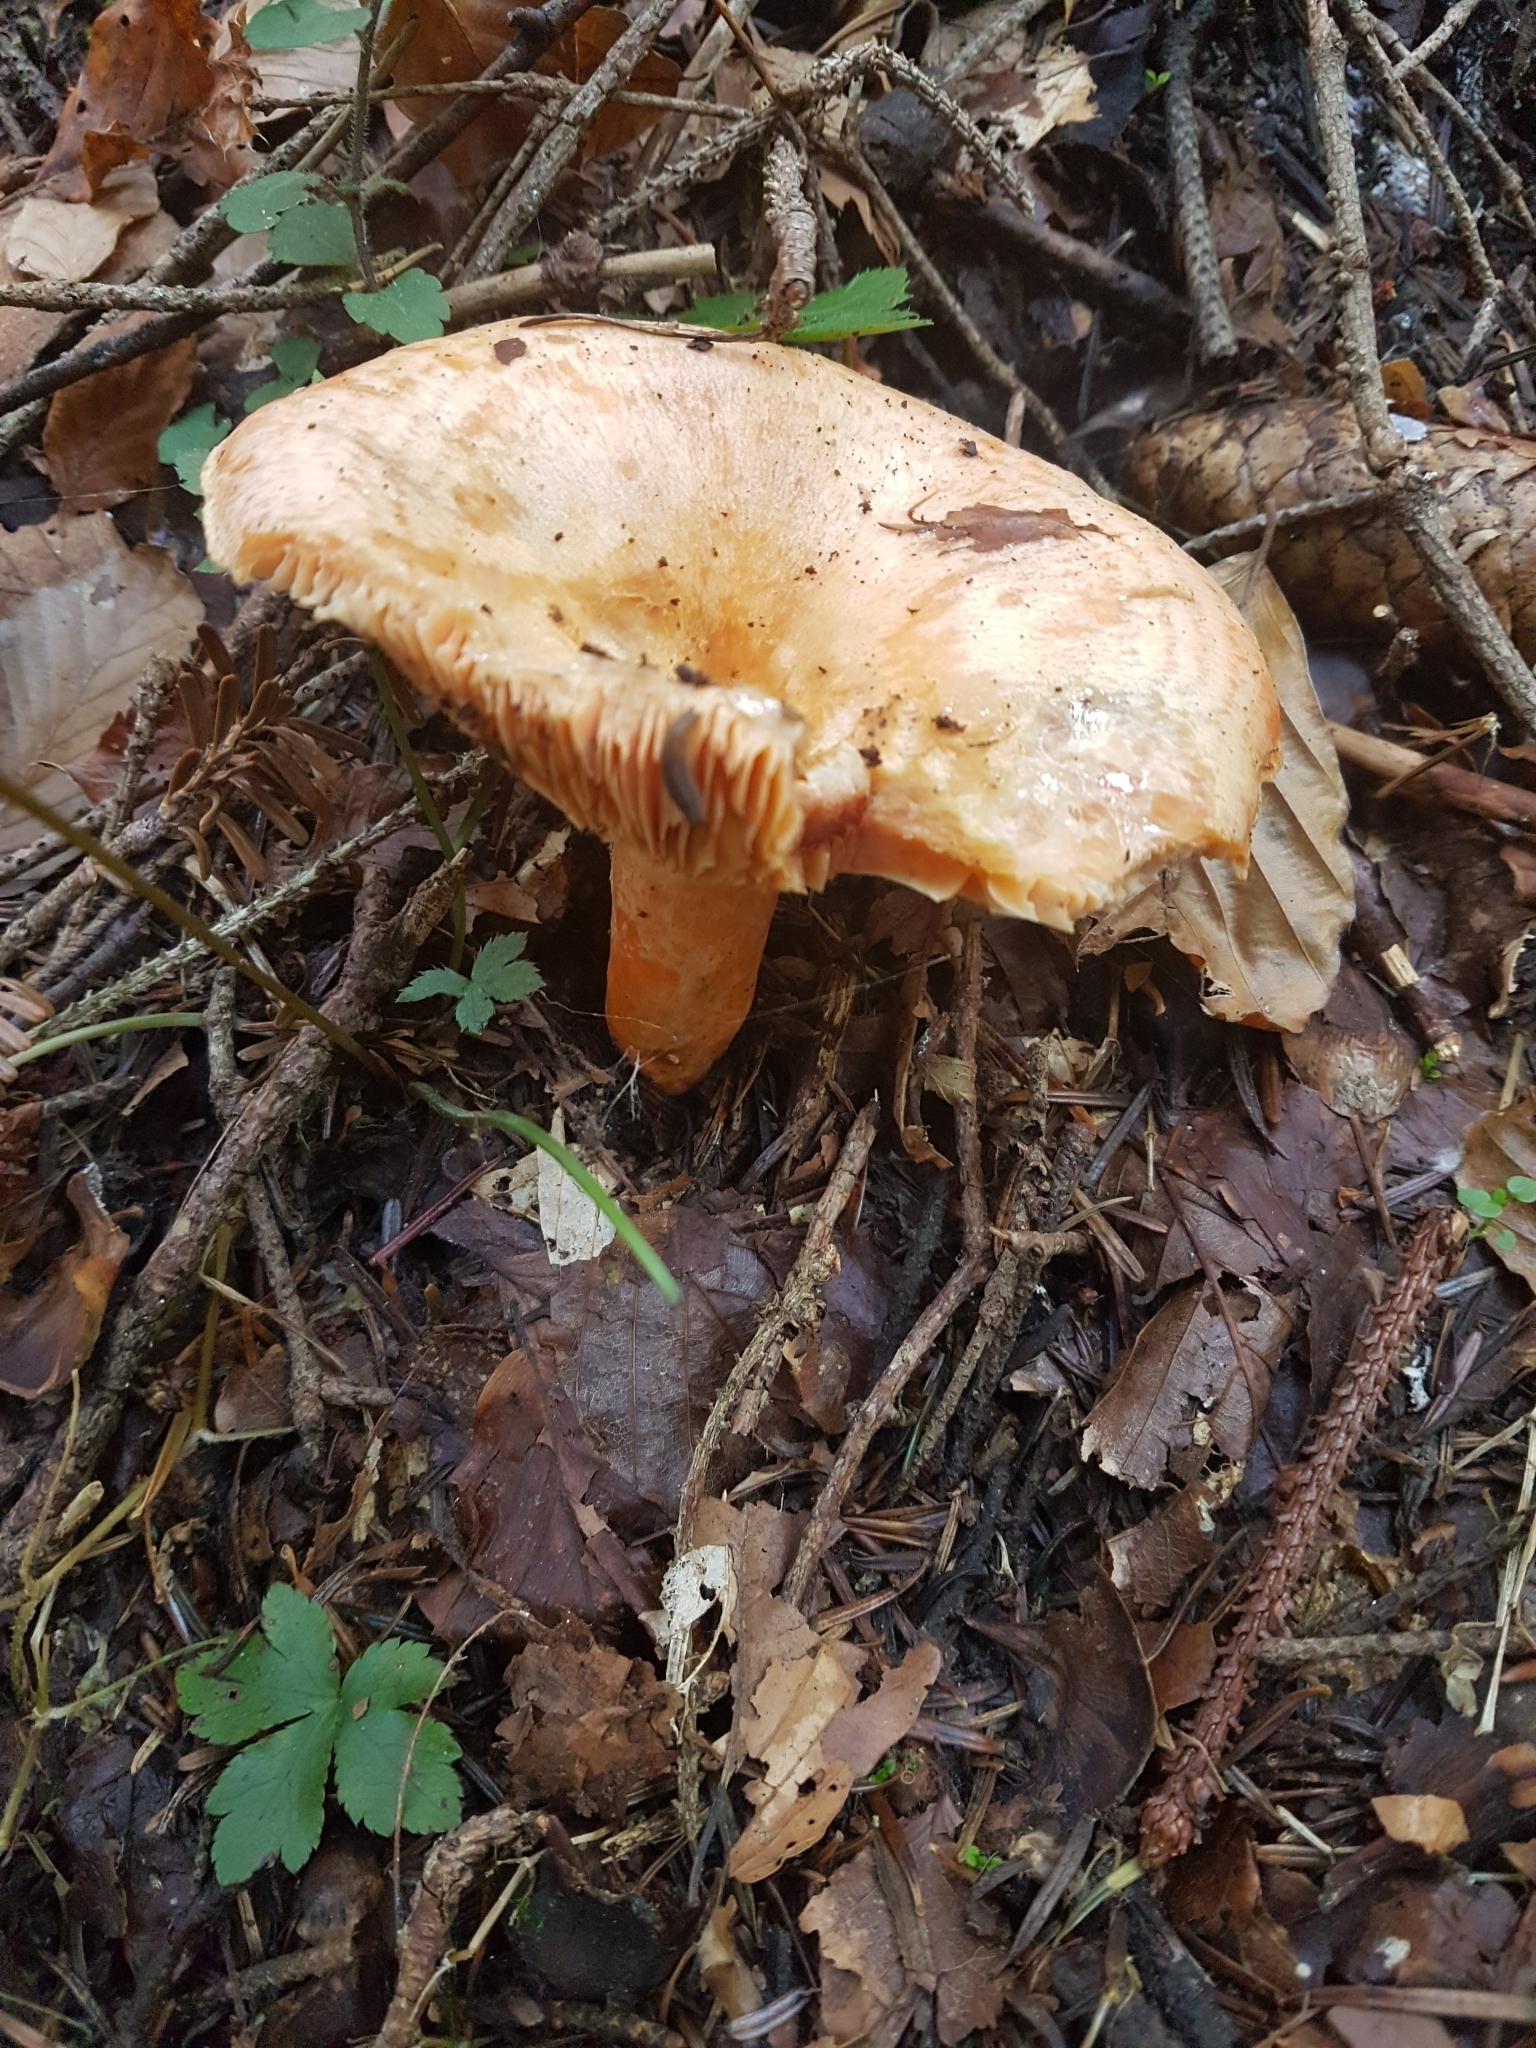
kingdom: Fungi
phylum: Basidiomycota
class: Agaricomycetes
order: Russulales
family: Russulaceae
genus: Lactarius
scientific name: Lactarius deterrimus
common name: False saffron milkcap
